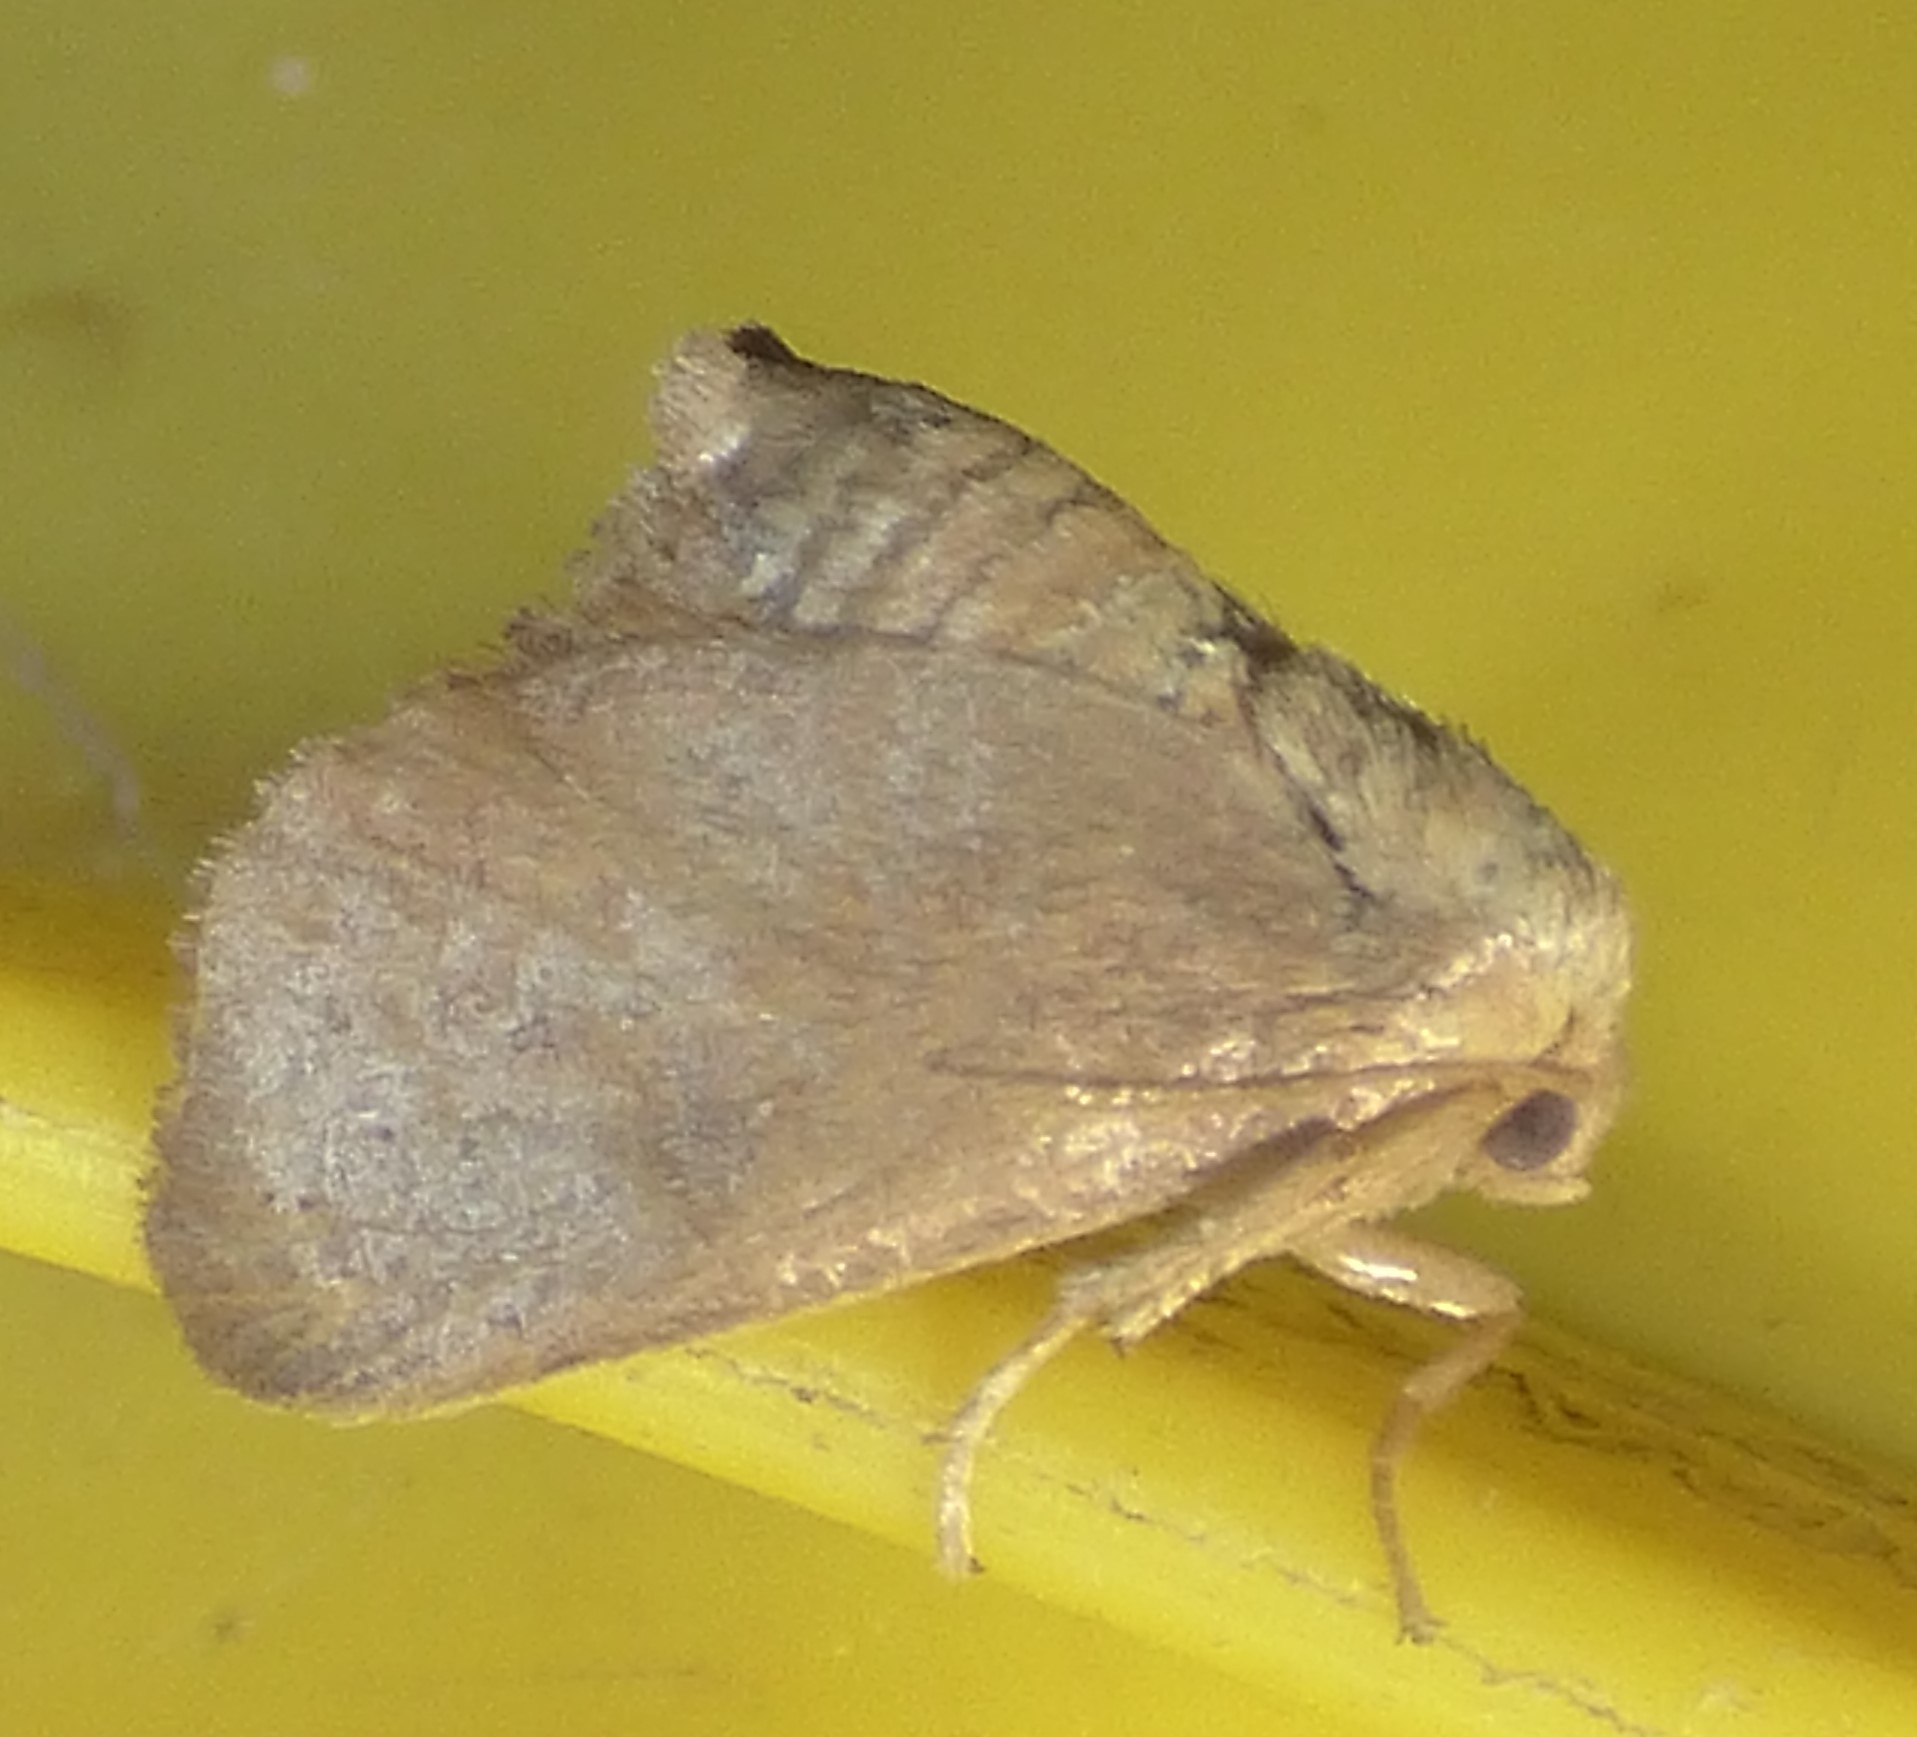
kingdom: Animalia
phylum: Arthropoda
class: Insecta
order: Lepidoptera
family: Limacodidae
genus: Isa
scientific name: Isa textula
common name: Crowned slug moth
